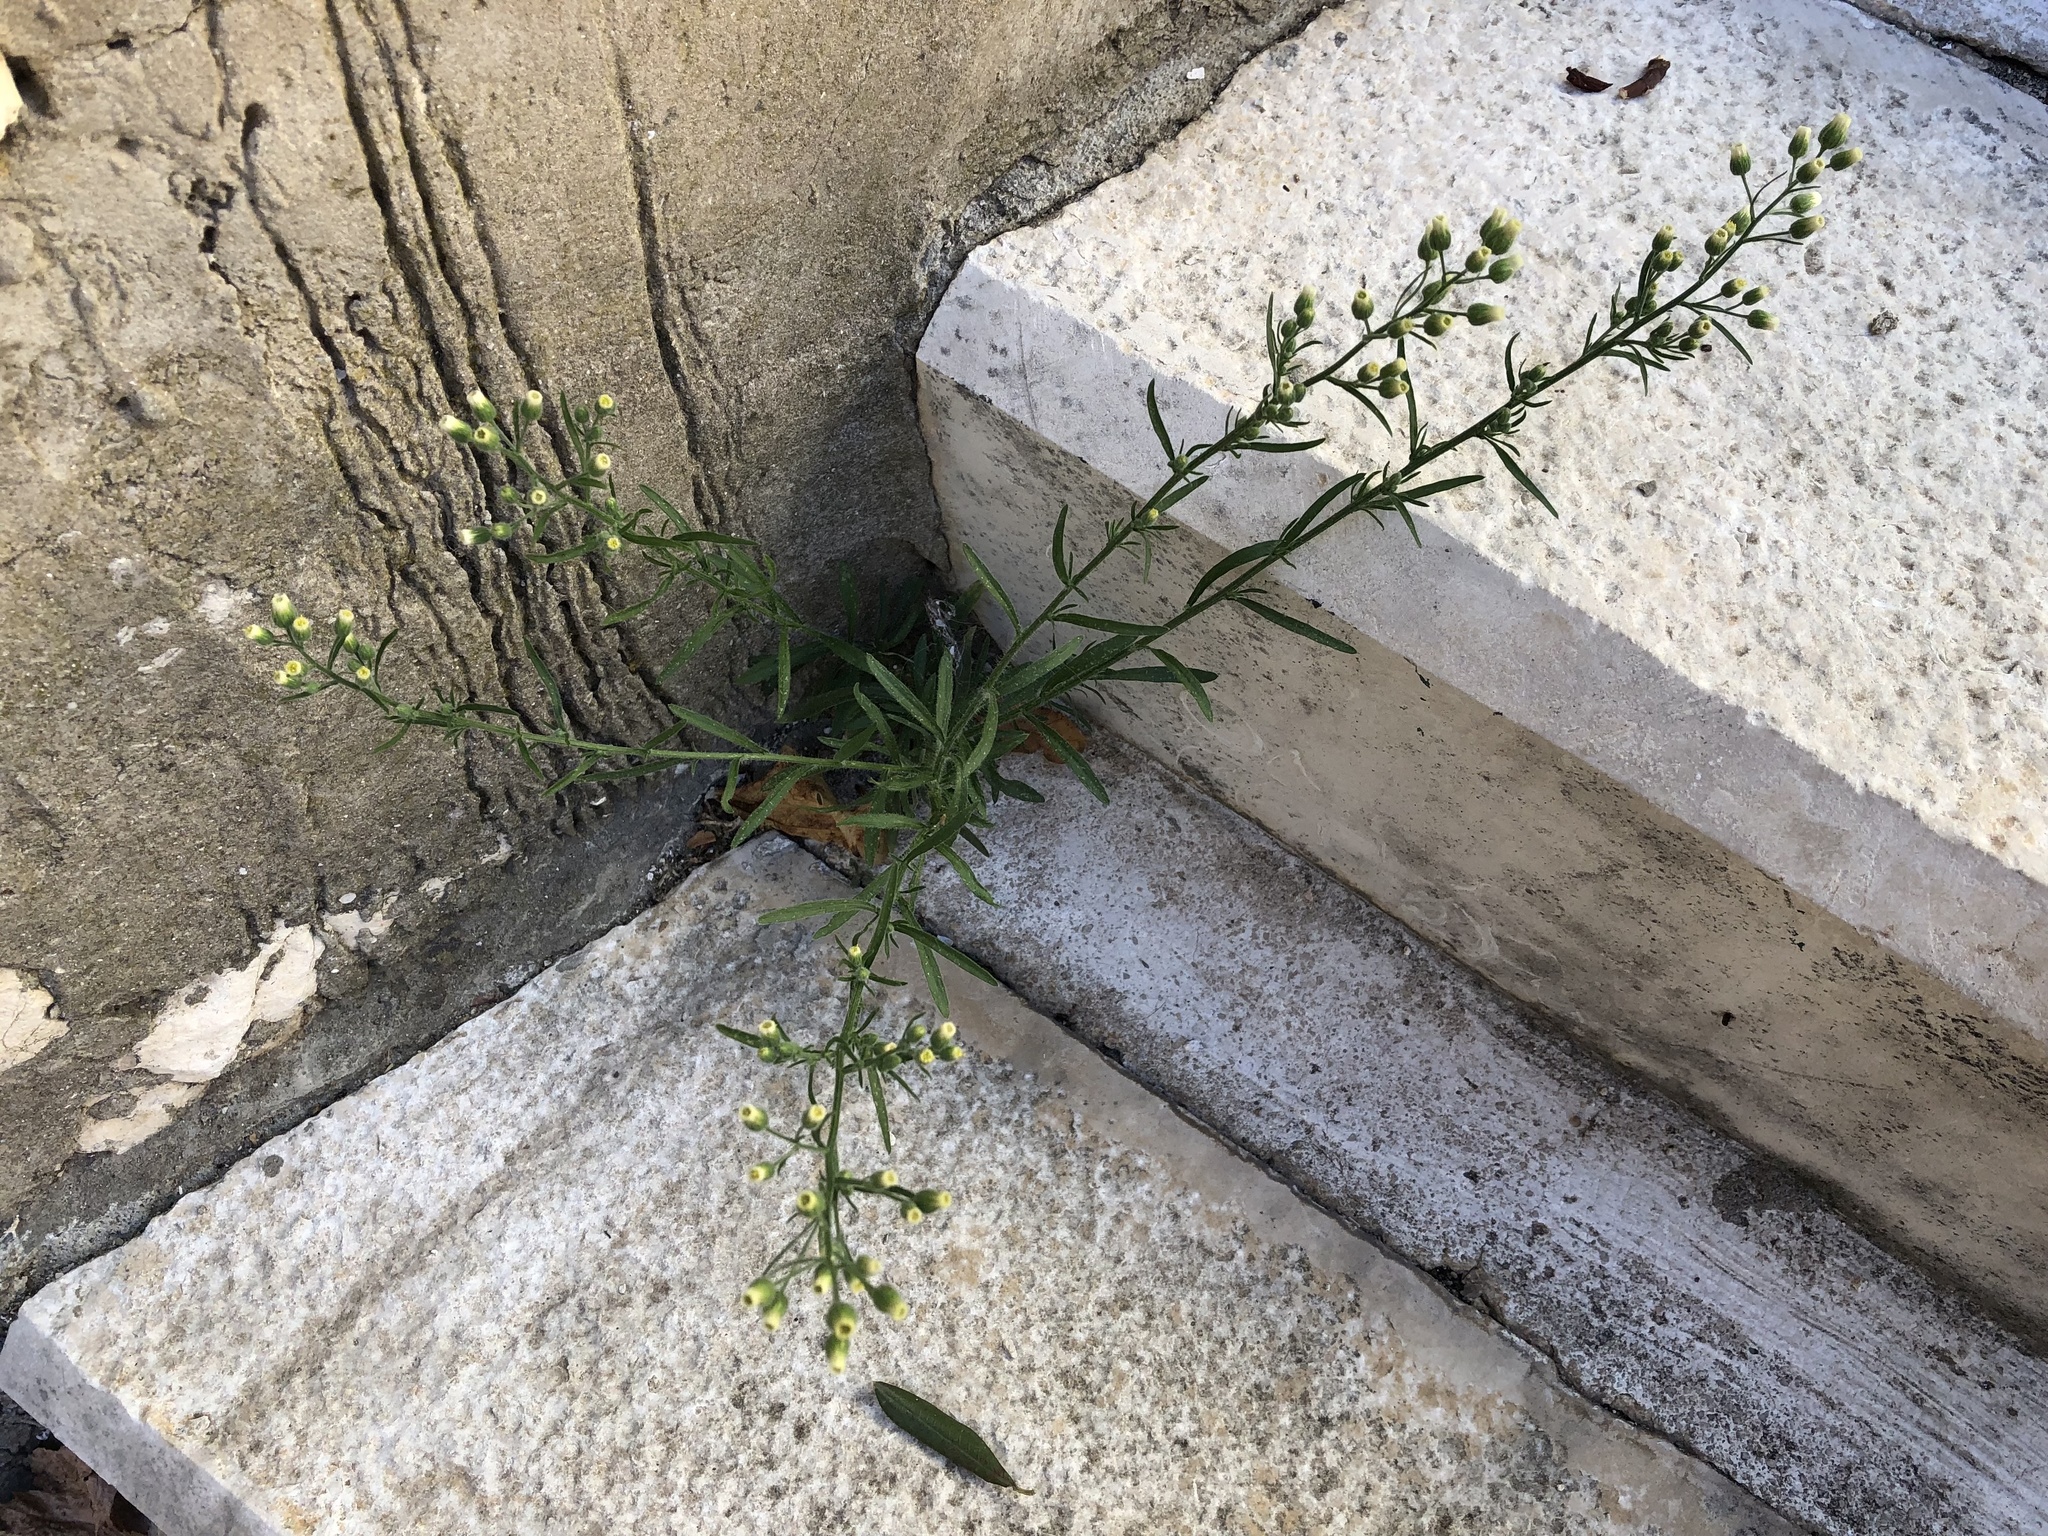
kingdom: Plantae
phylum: Tracheophyta
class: Magnoliopsida
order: Asterales
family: Asteraceae
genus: Erigeron
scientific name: Erigeron bonariensis
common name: Argentine fleabane
